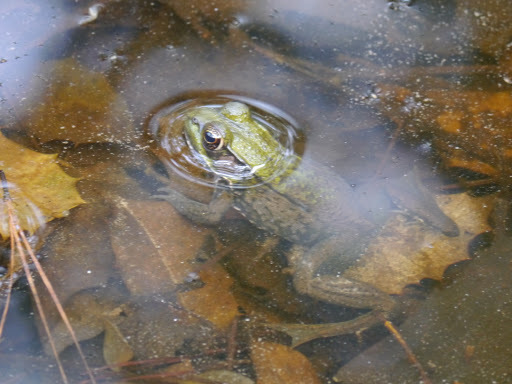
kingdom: Animalia
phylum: Chordata
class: Amphibia
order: Anura
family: Ranidae
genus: Lithobates
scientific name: Lithobates clamitans
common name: Green frog
